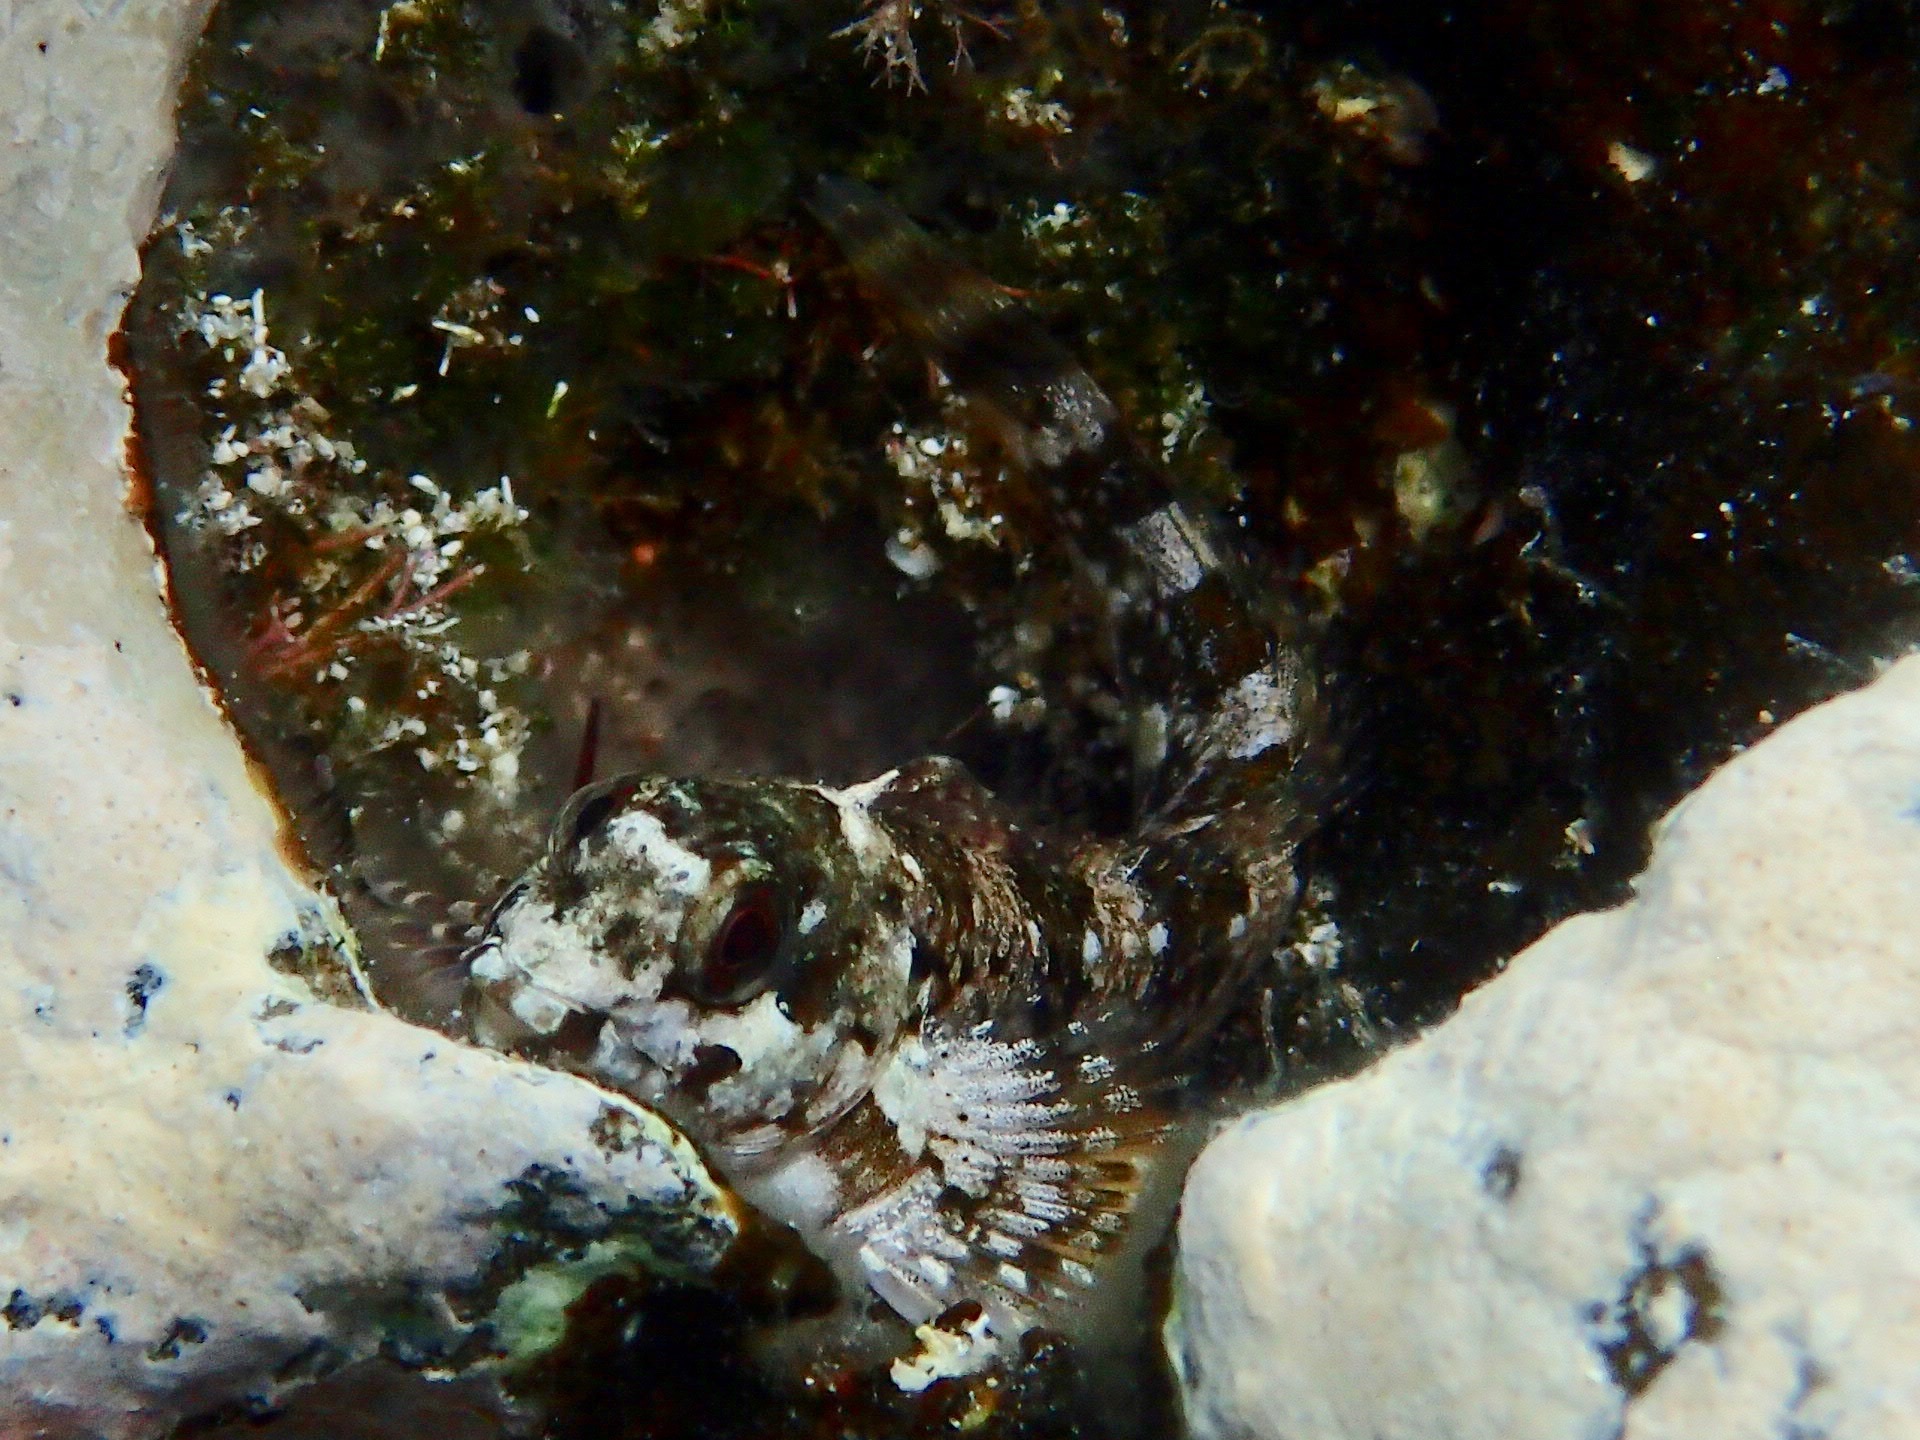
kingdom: Animalia
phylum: Chordata
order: Perciformes
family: Blenniidae
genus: Lipophrys
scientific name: Lipophrys trigloides
